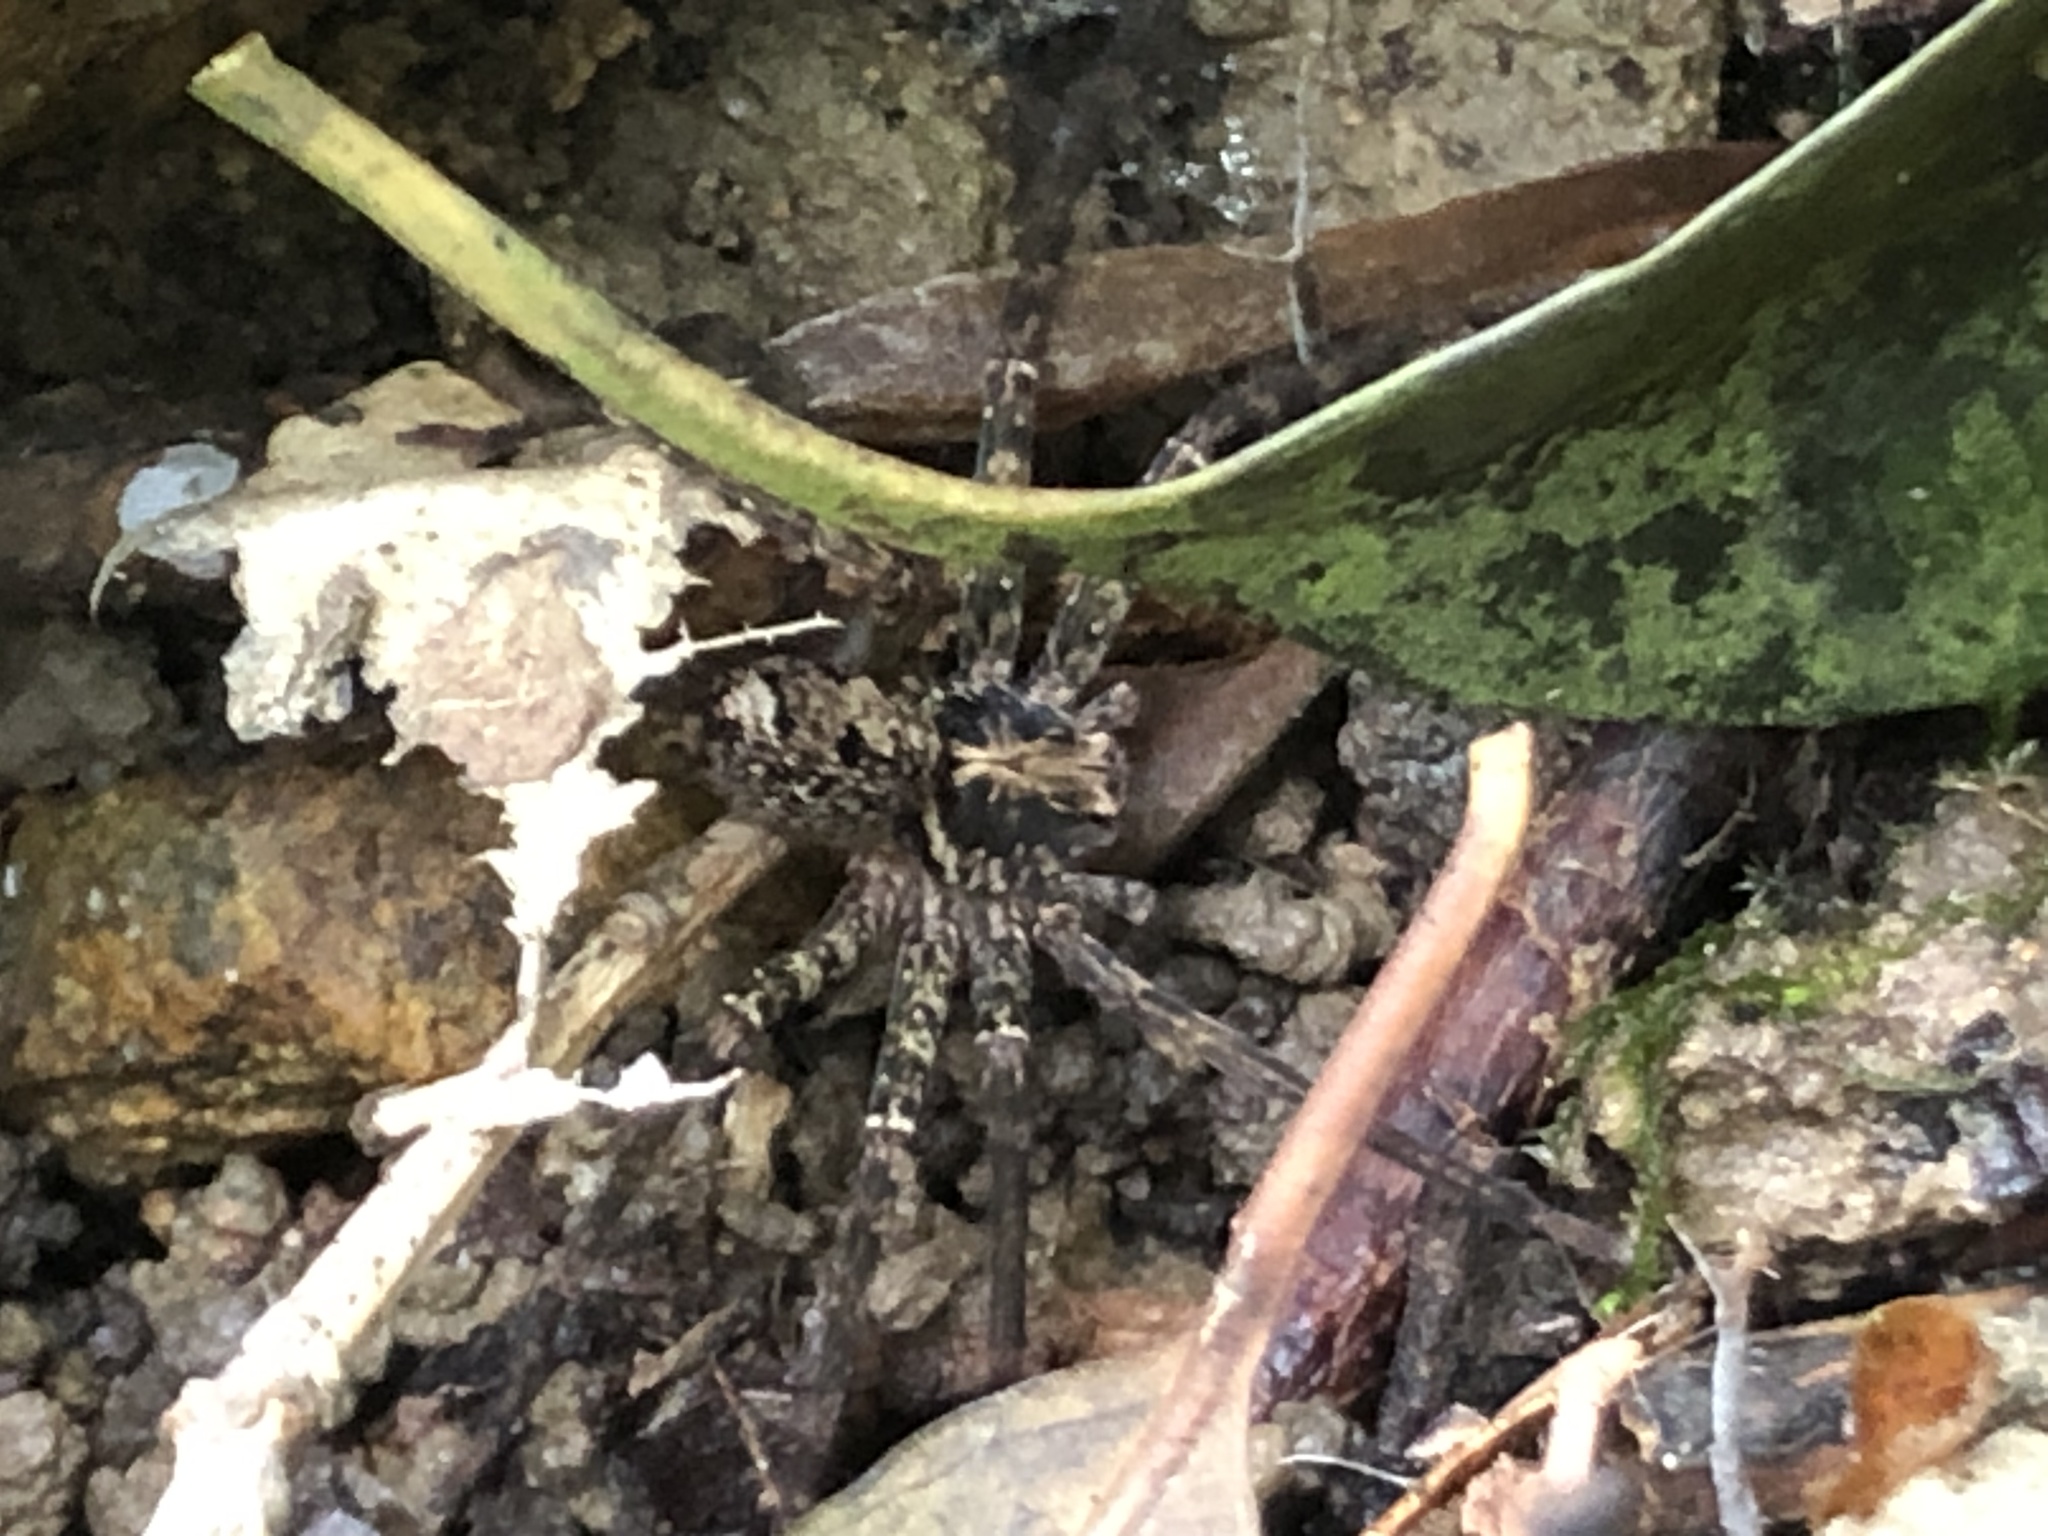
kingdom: Animalia
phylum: Arthropoda
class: Arachnida
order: Araneae
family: Sparassidae
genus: Heteropoda
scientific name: Heteropoda amphora
